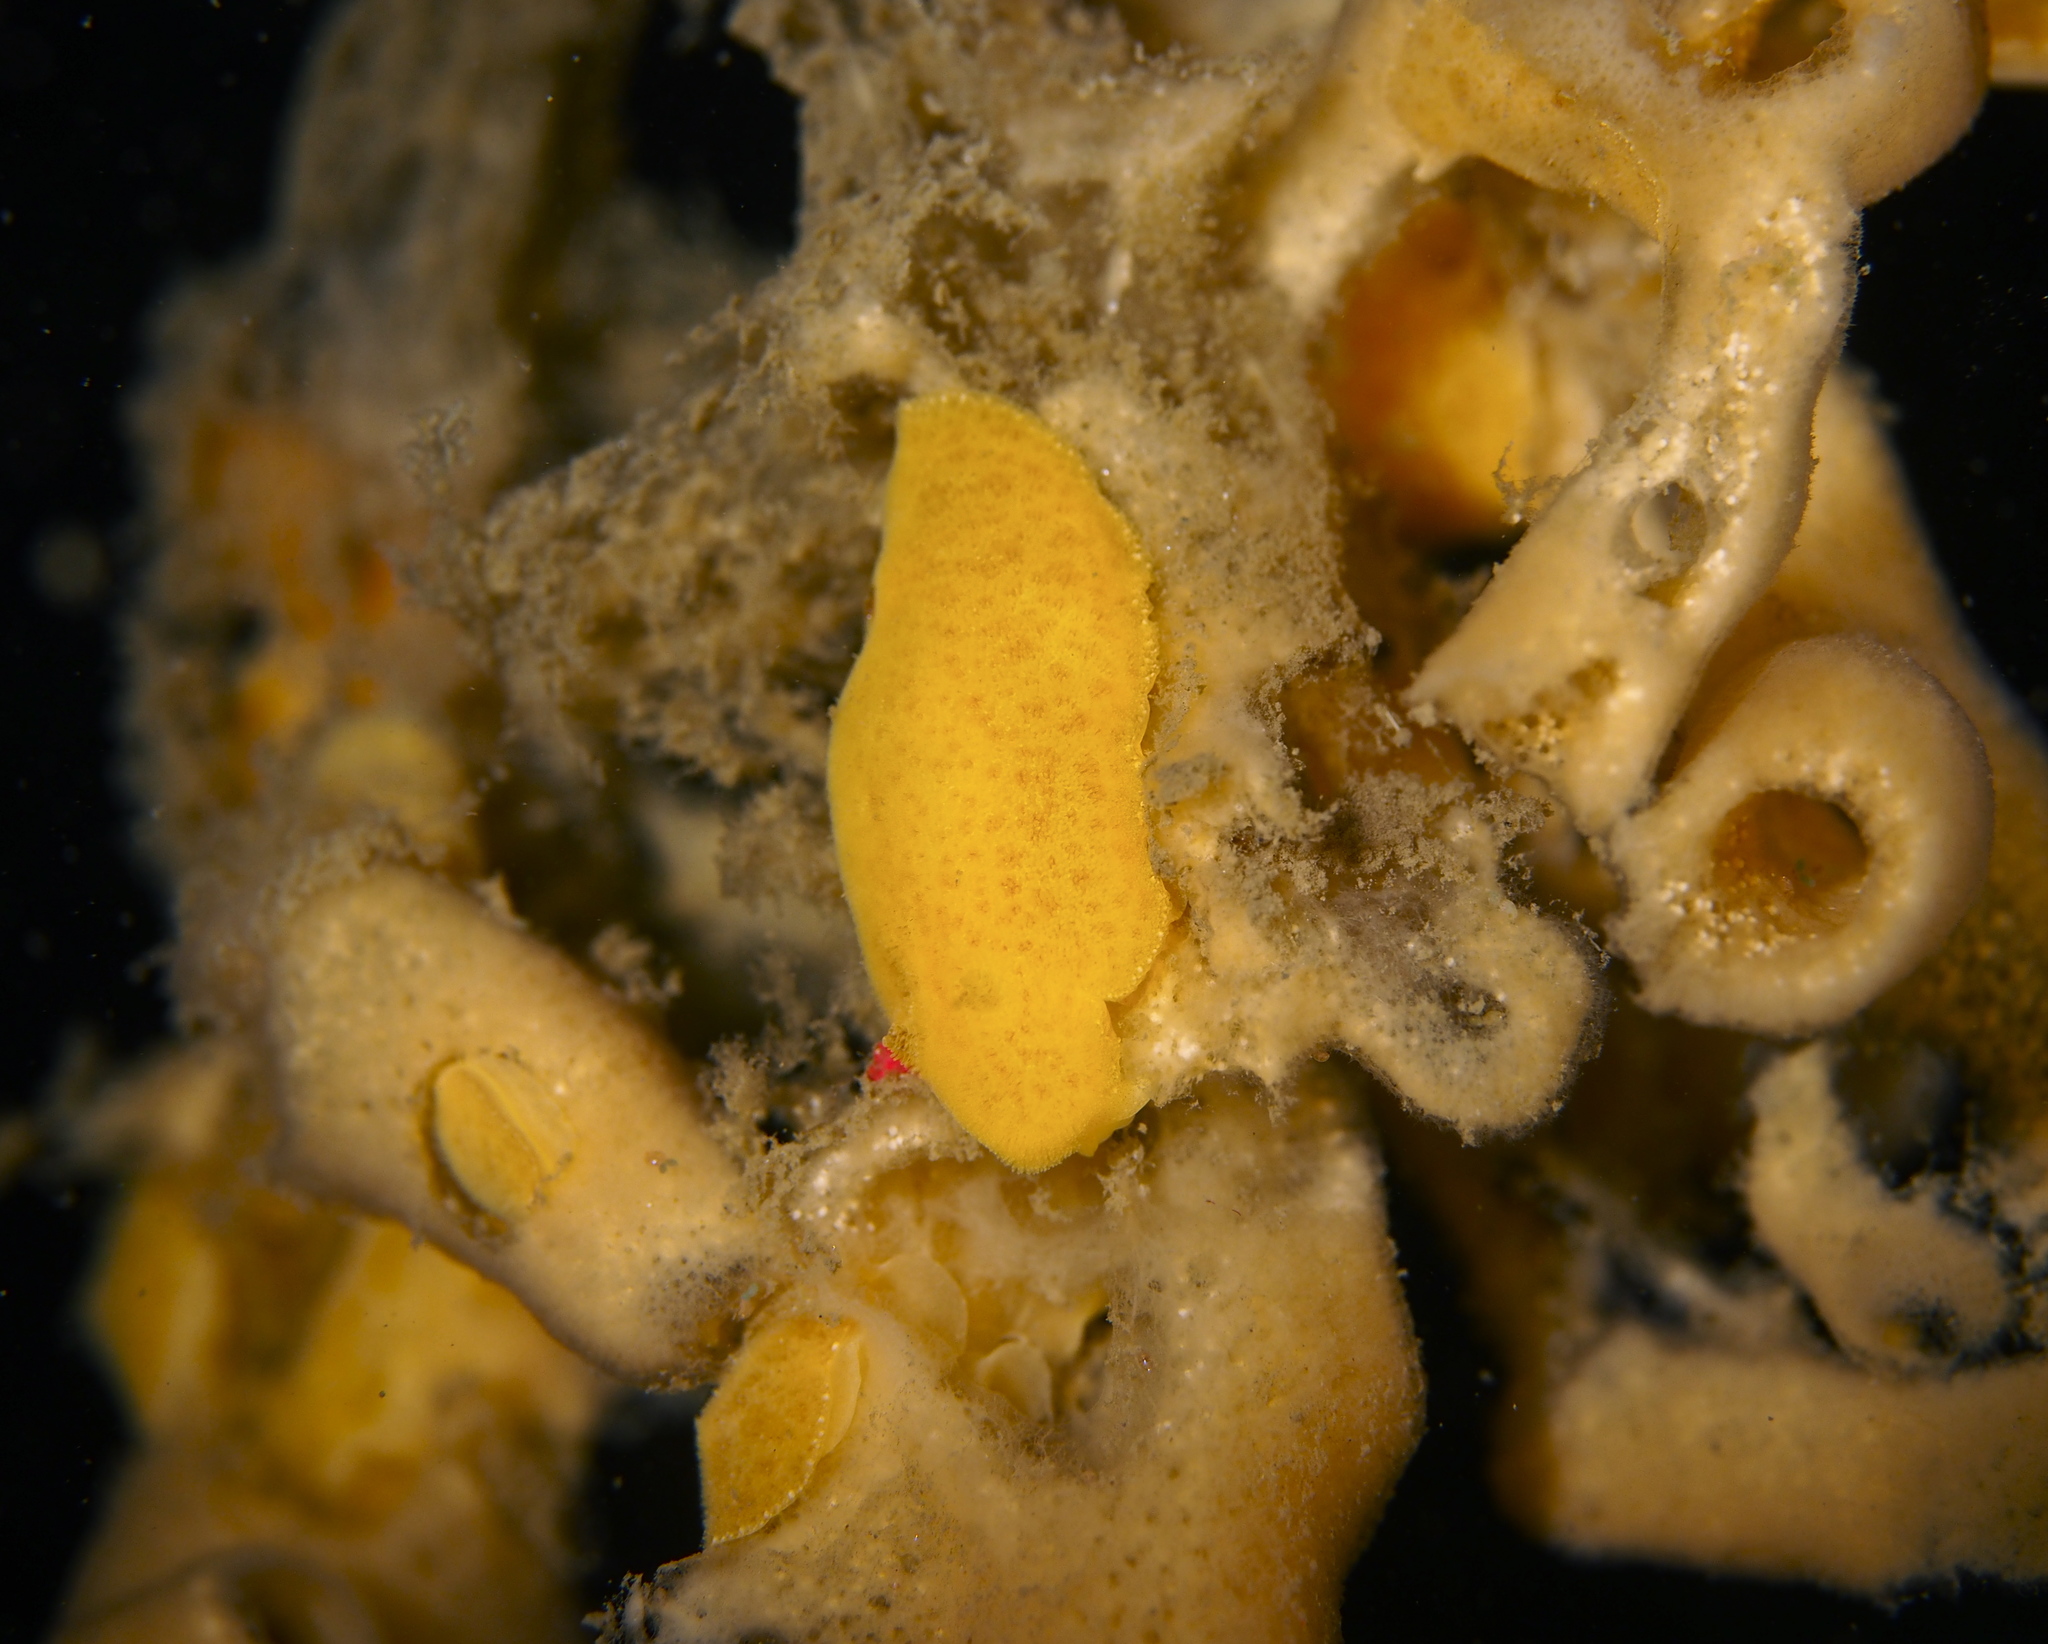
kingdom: Animalia
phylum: Mollusca
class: Gastropoda
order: Nudibranchia
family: Discodorididae
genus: Jorunna
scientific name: Jorunna tomentosa
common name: Grey sea slug
